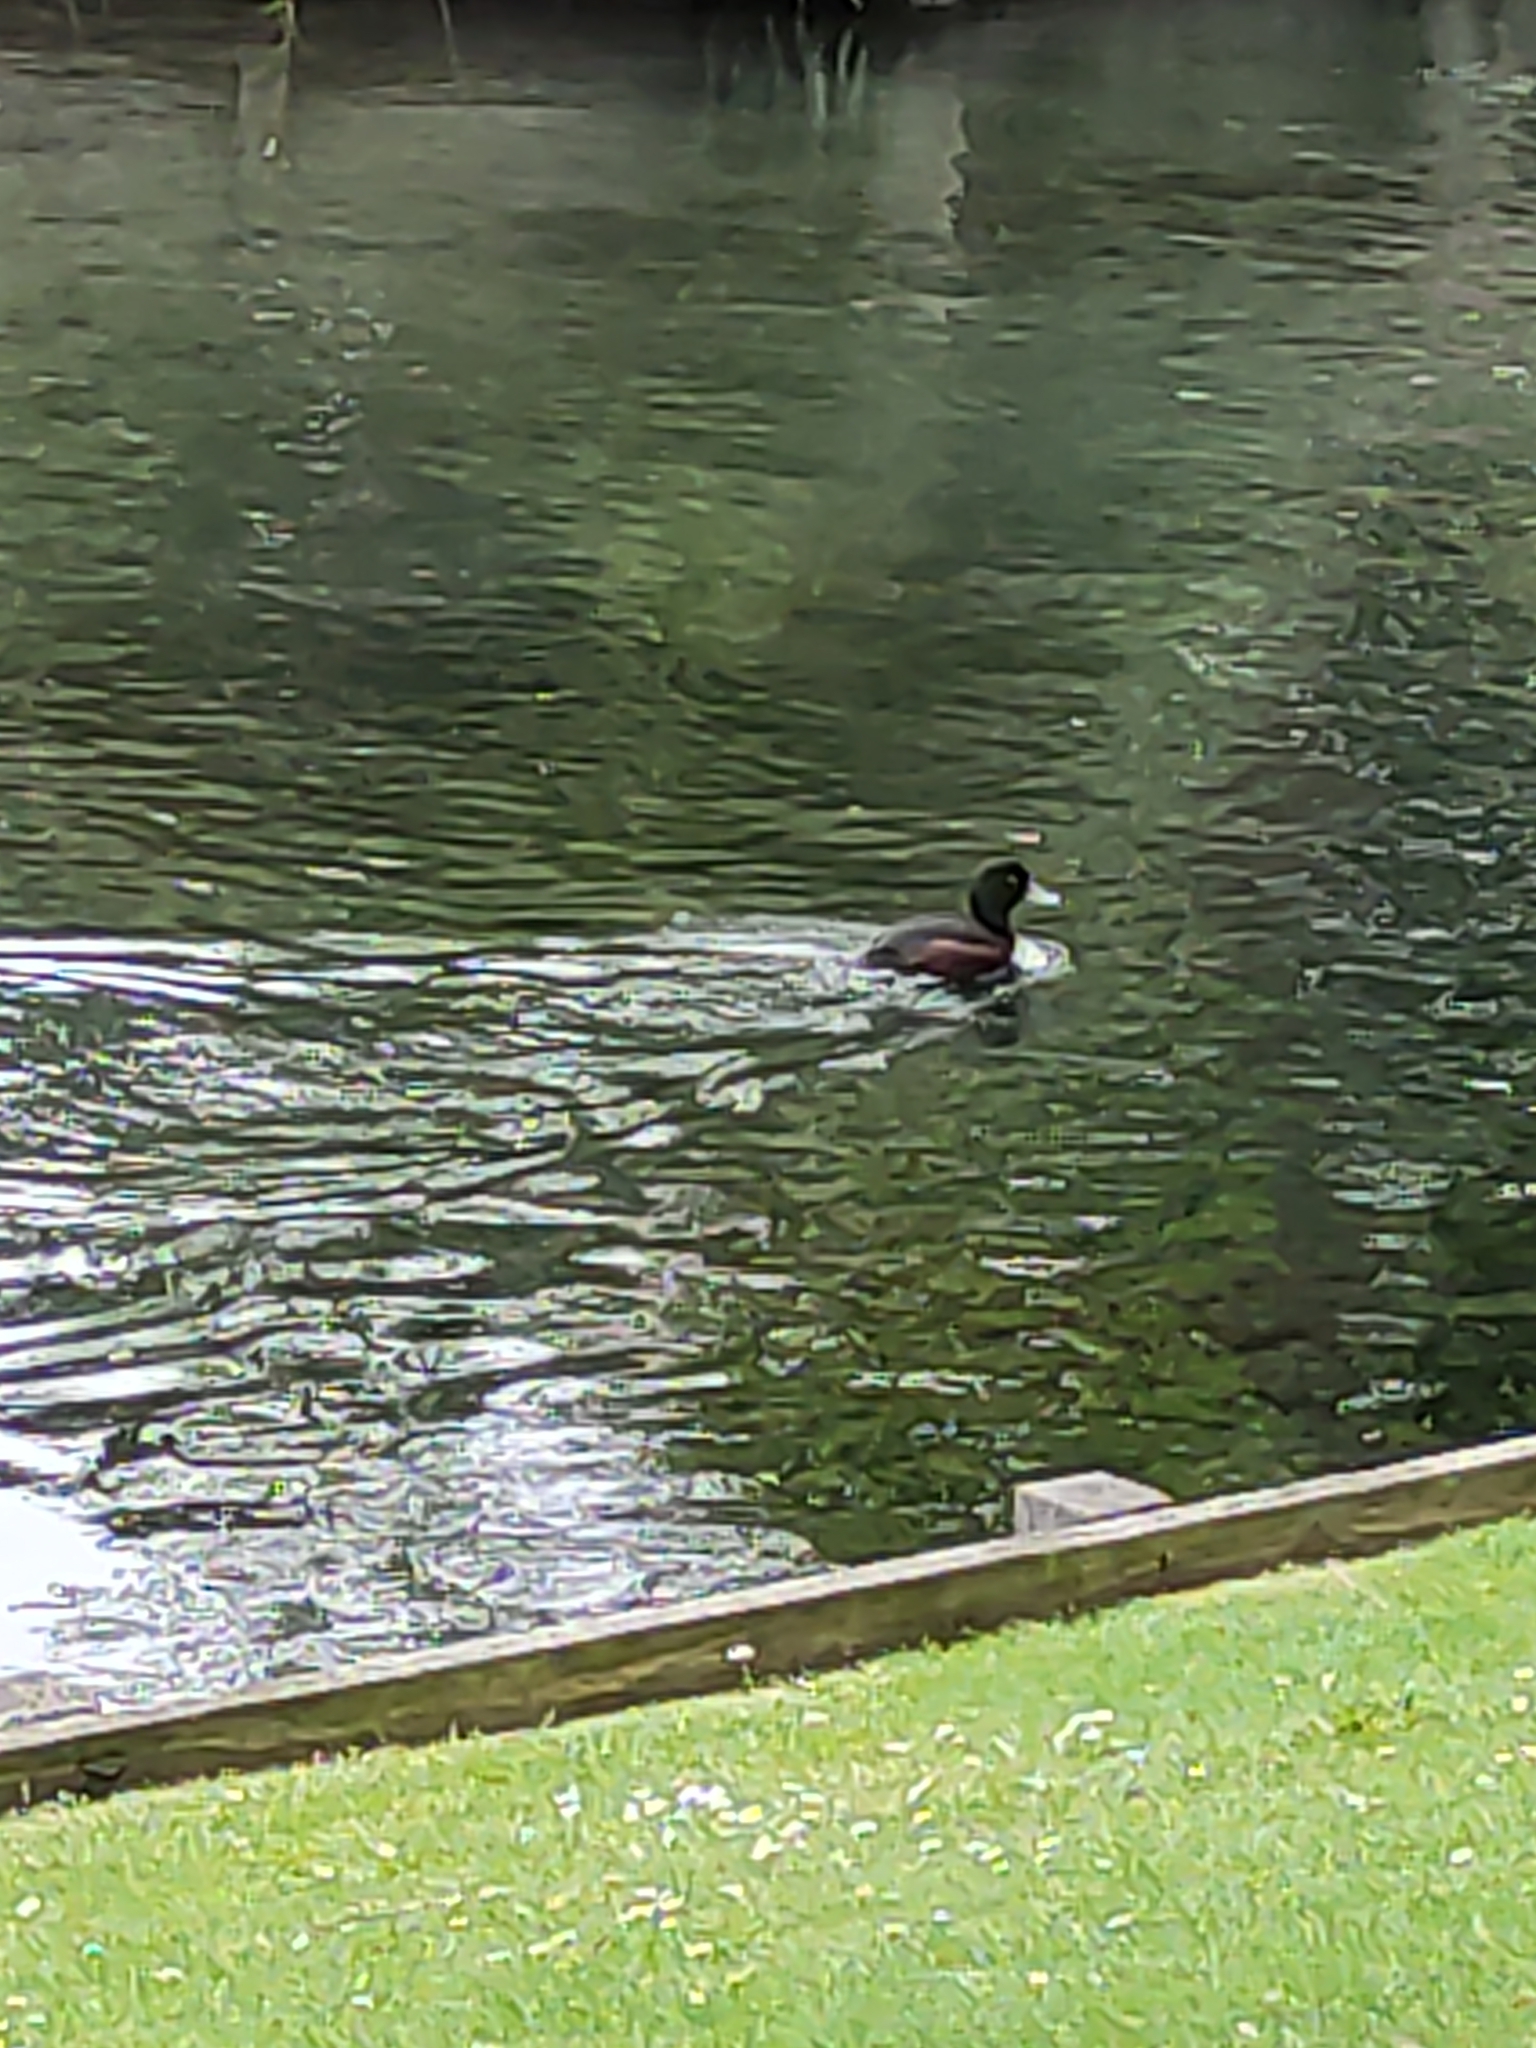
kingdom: Animalia
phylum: Chordata
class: Aves
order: Anseriformes
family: Anatidae
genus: Aythya
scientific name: Aythya novaeseelandiae
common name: New zealand scaup
